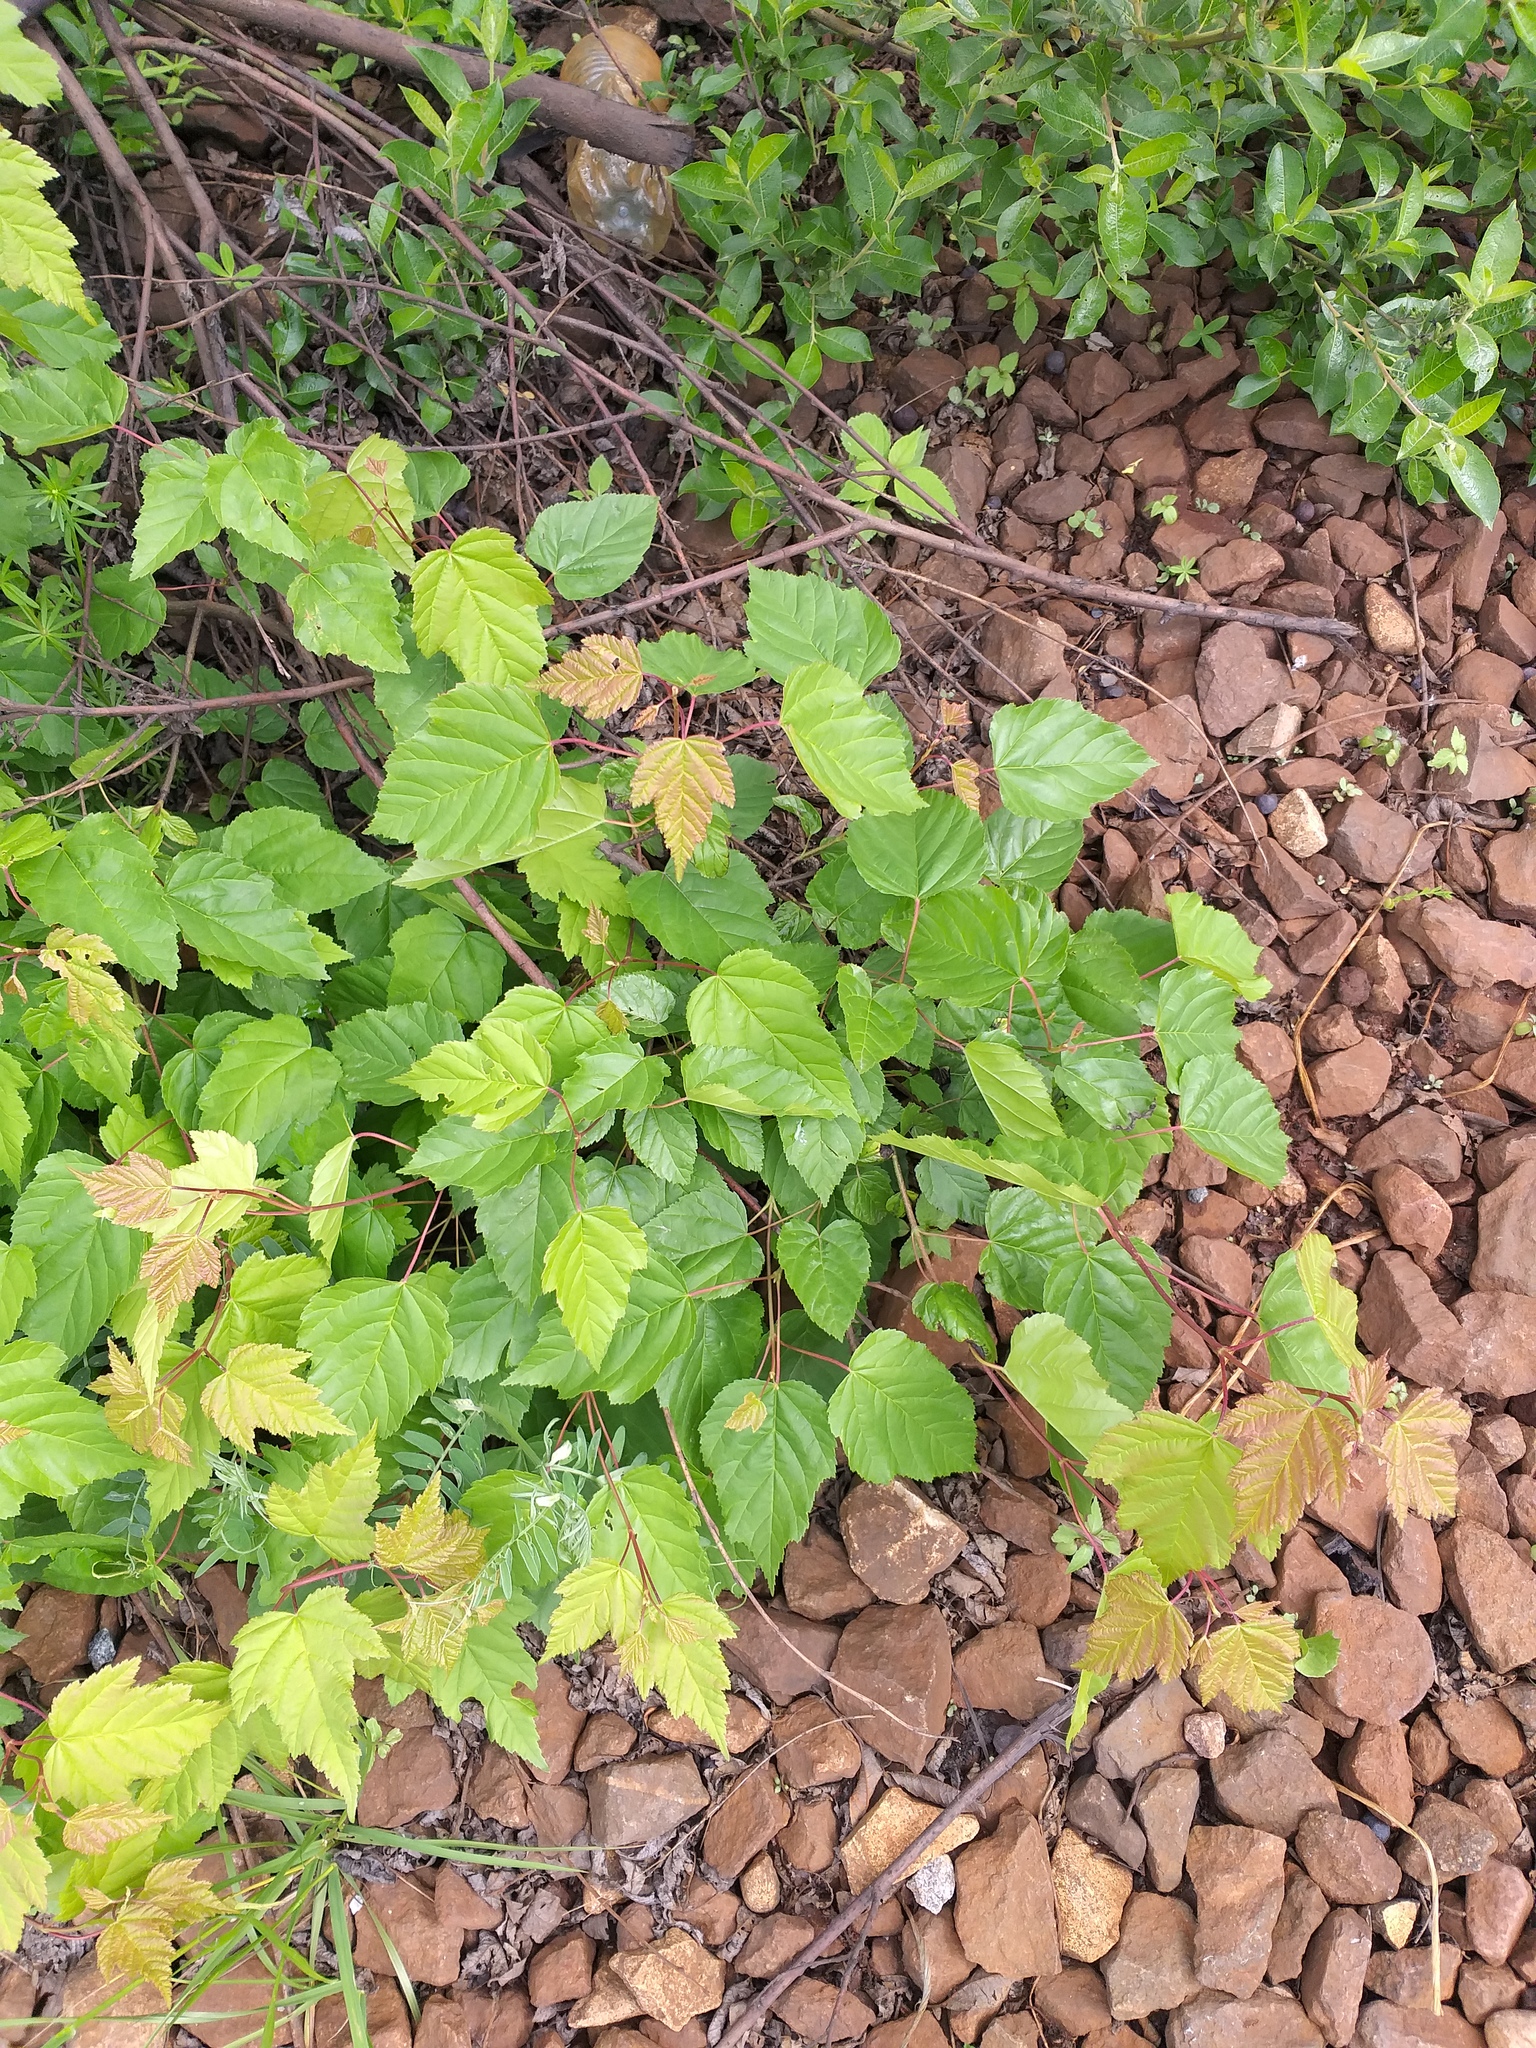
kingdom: Plantae
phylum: Tracheophyta
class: Magnoliopsida
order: Sapindales
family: Sapindaceae
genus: Acer
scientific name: Acer tataricum
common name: Tartar maple
